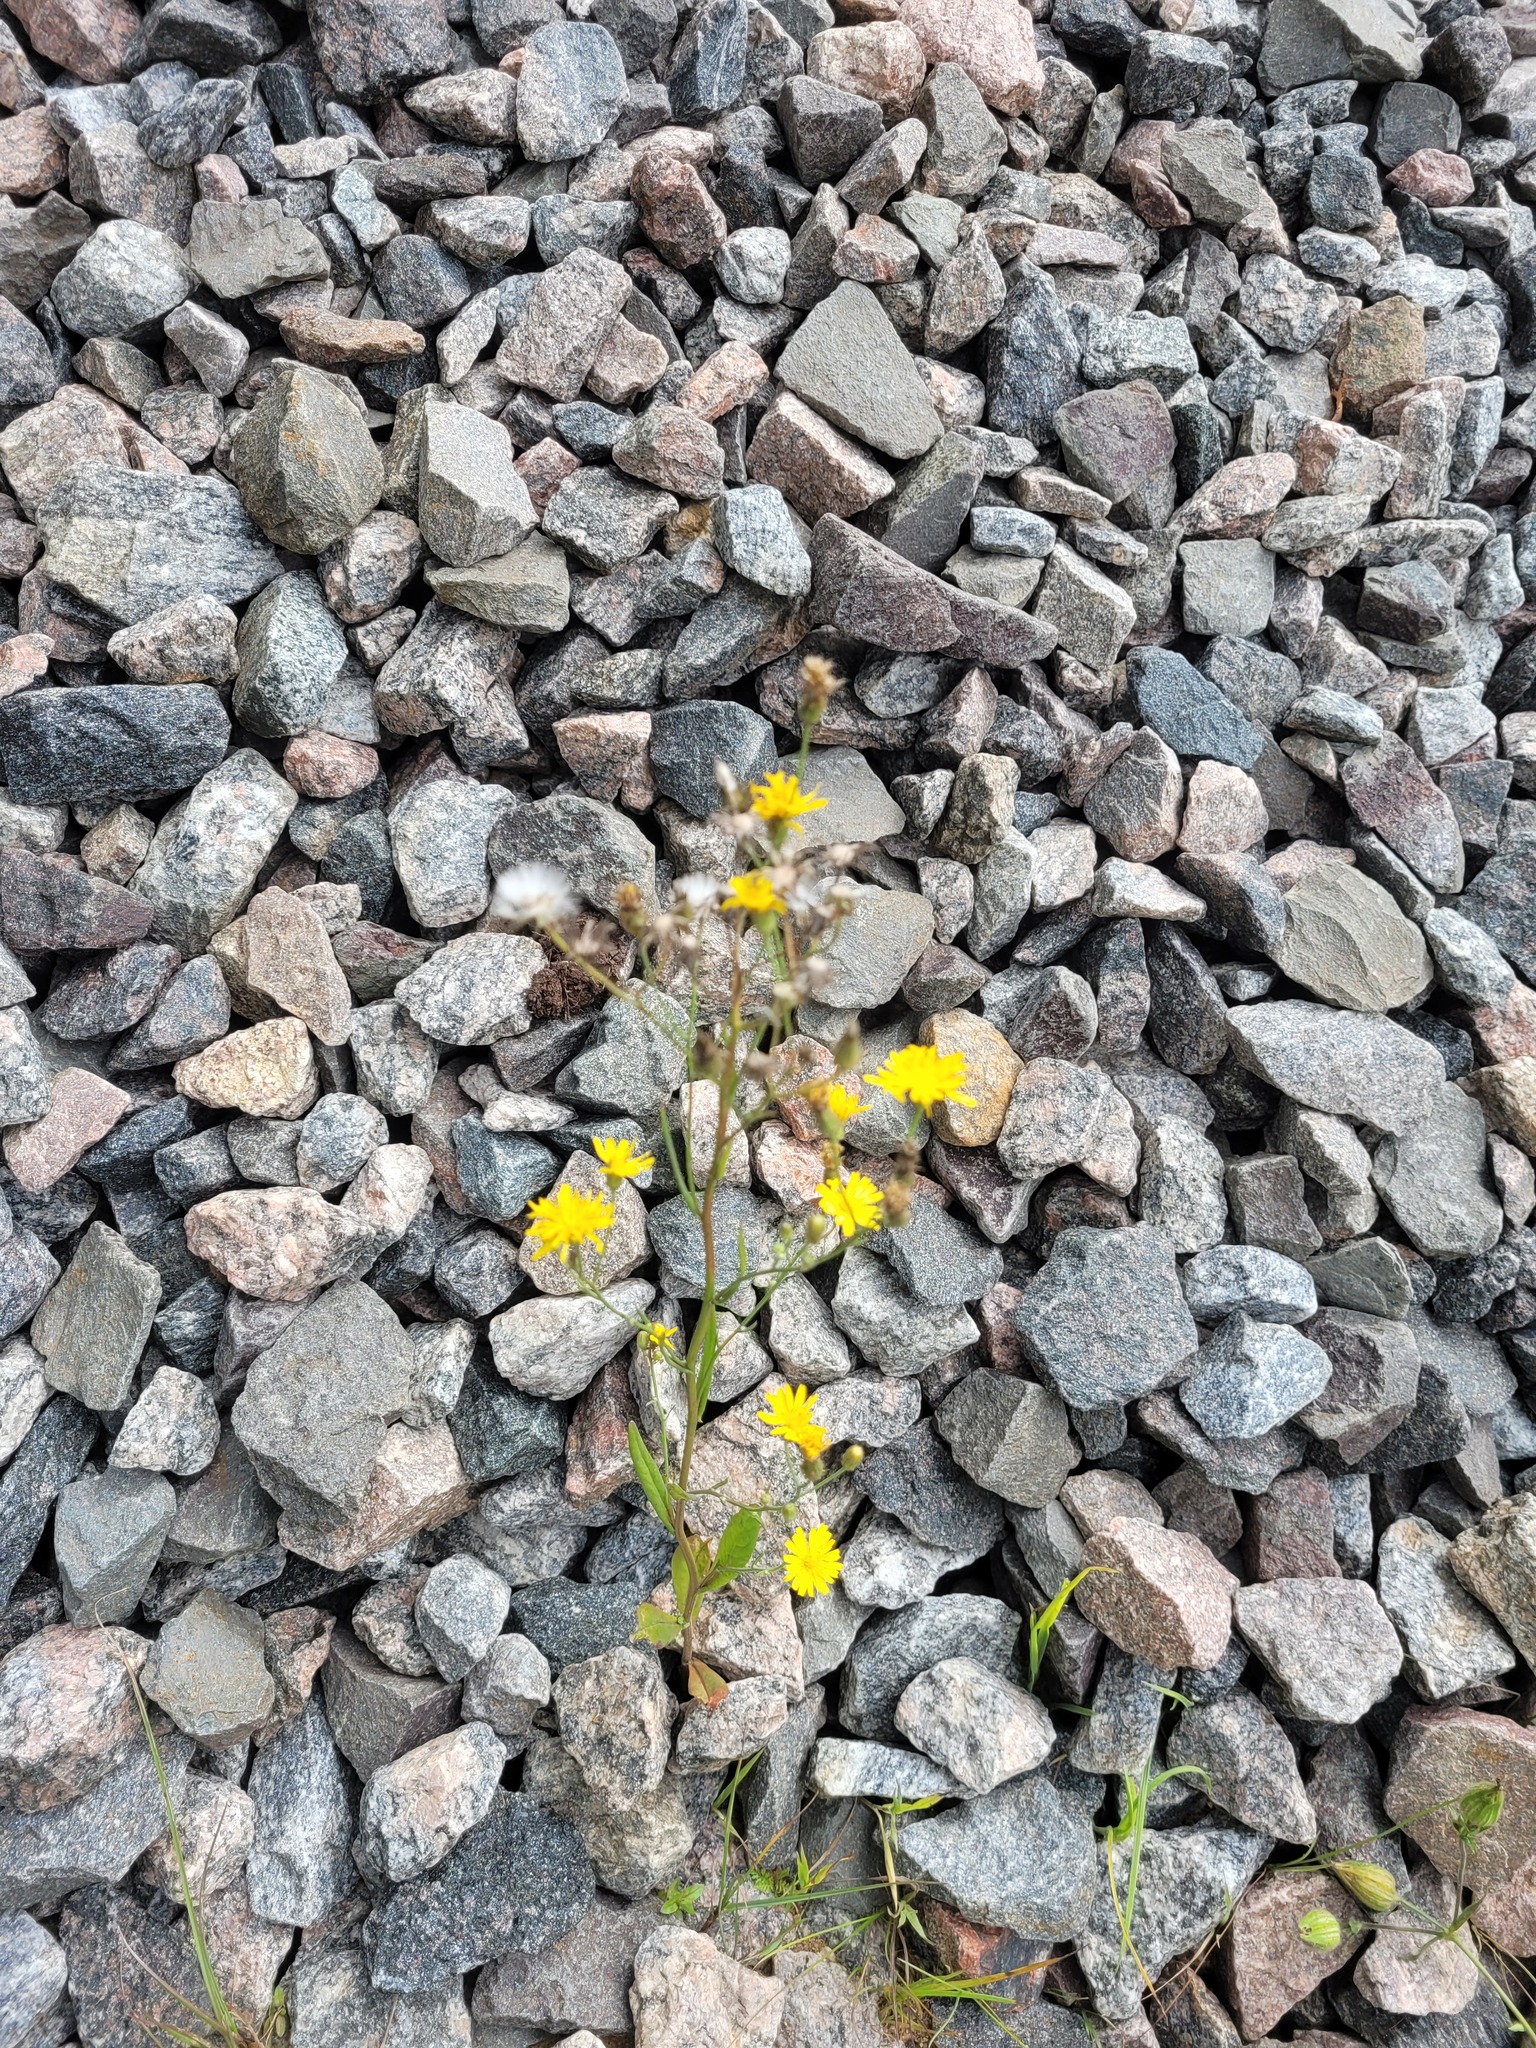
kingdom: Plantae
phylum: Tracheophyta
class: Magnoliopsida
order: Asterales
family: Asteraceae
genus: Crepis
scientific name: Crepis tectorum
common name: Narrow-leaved hawk's-beard
